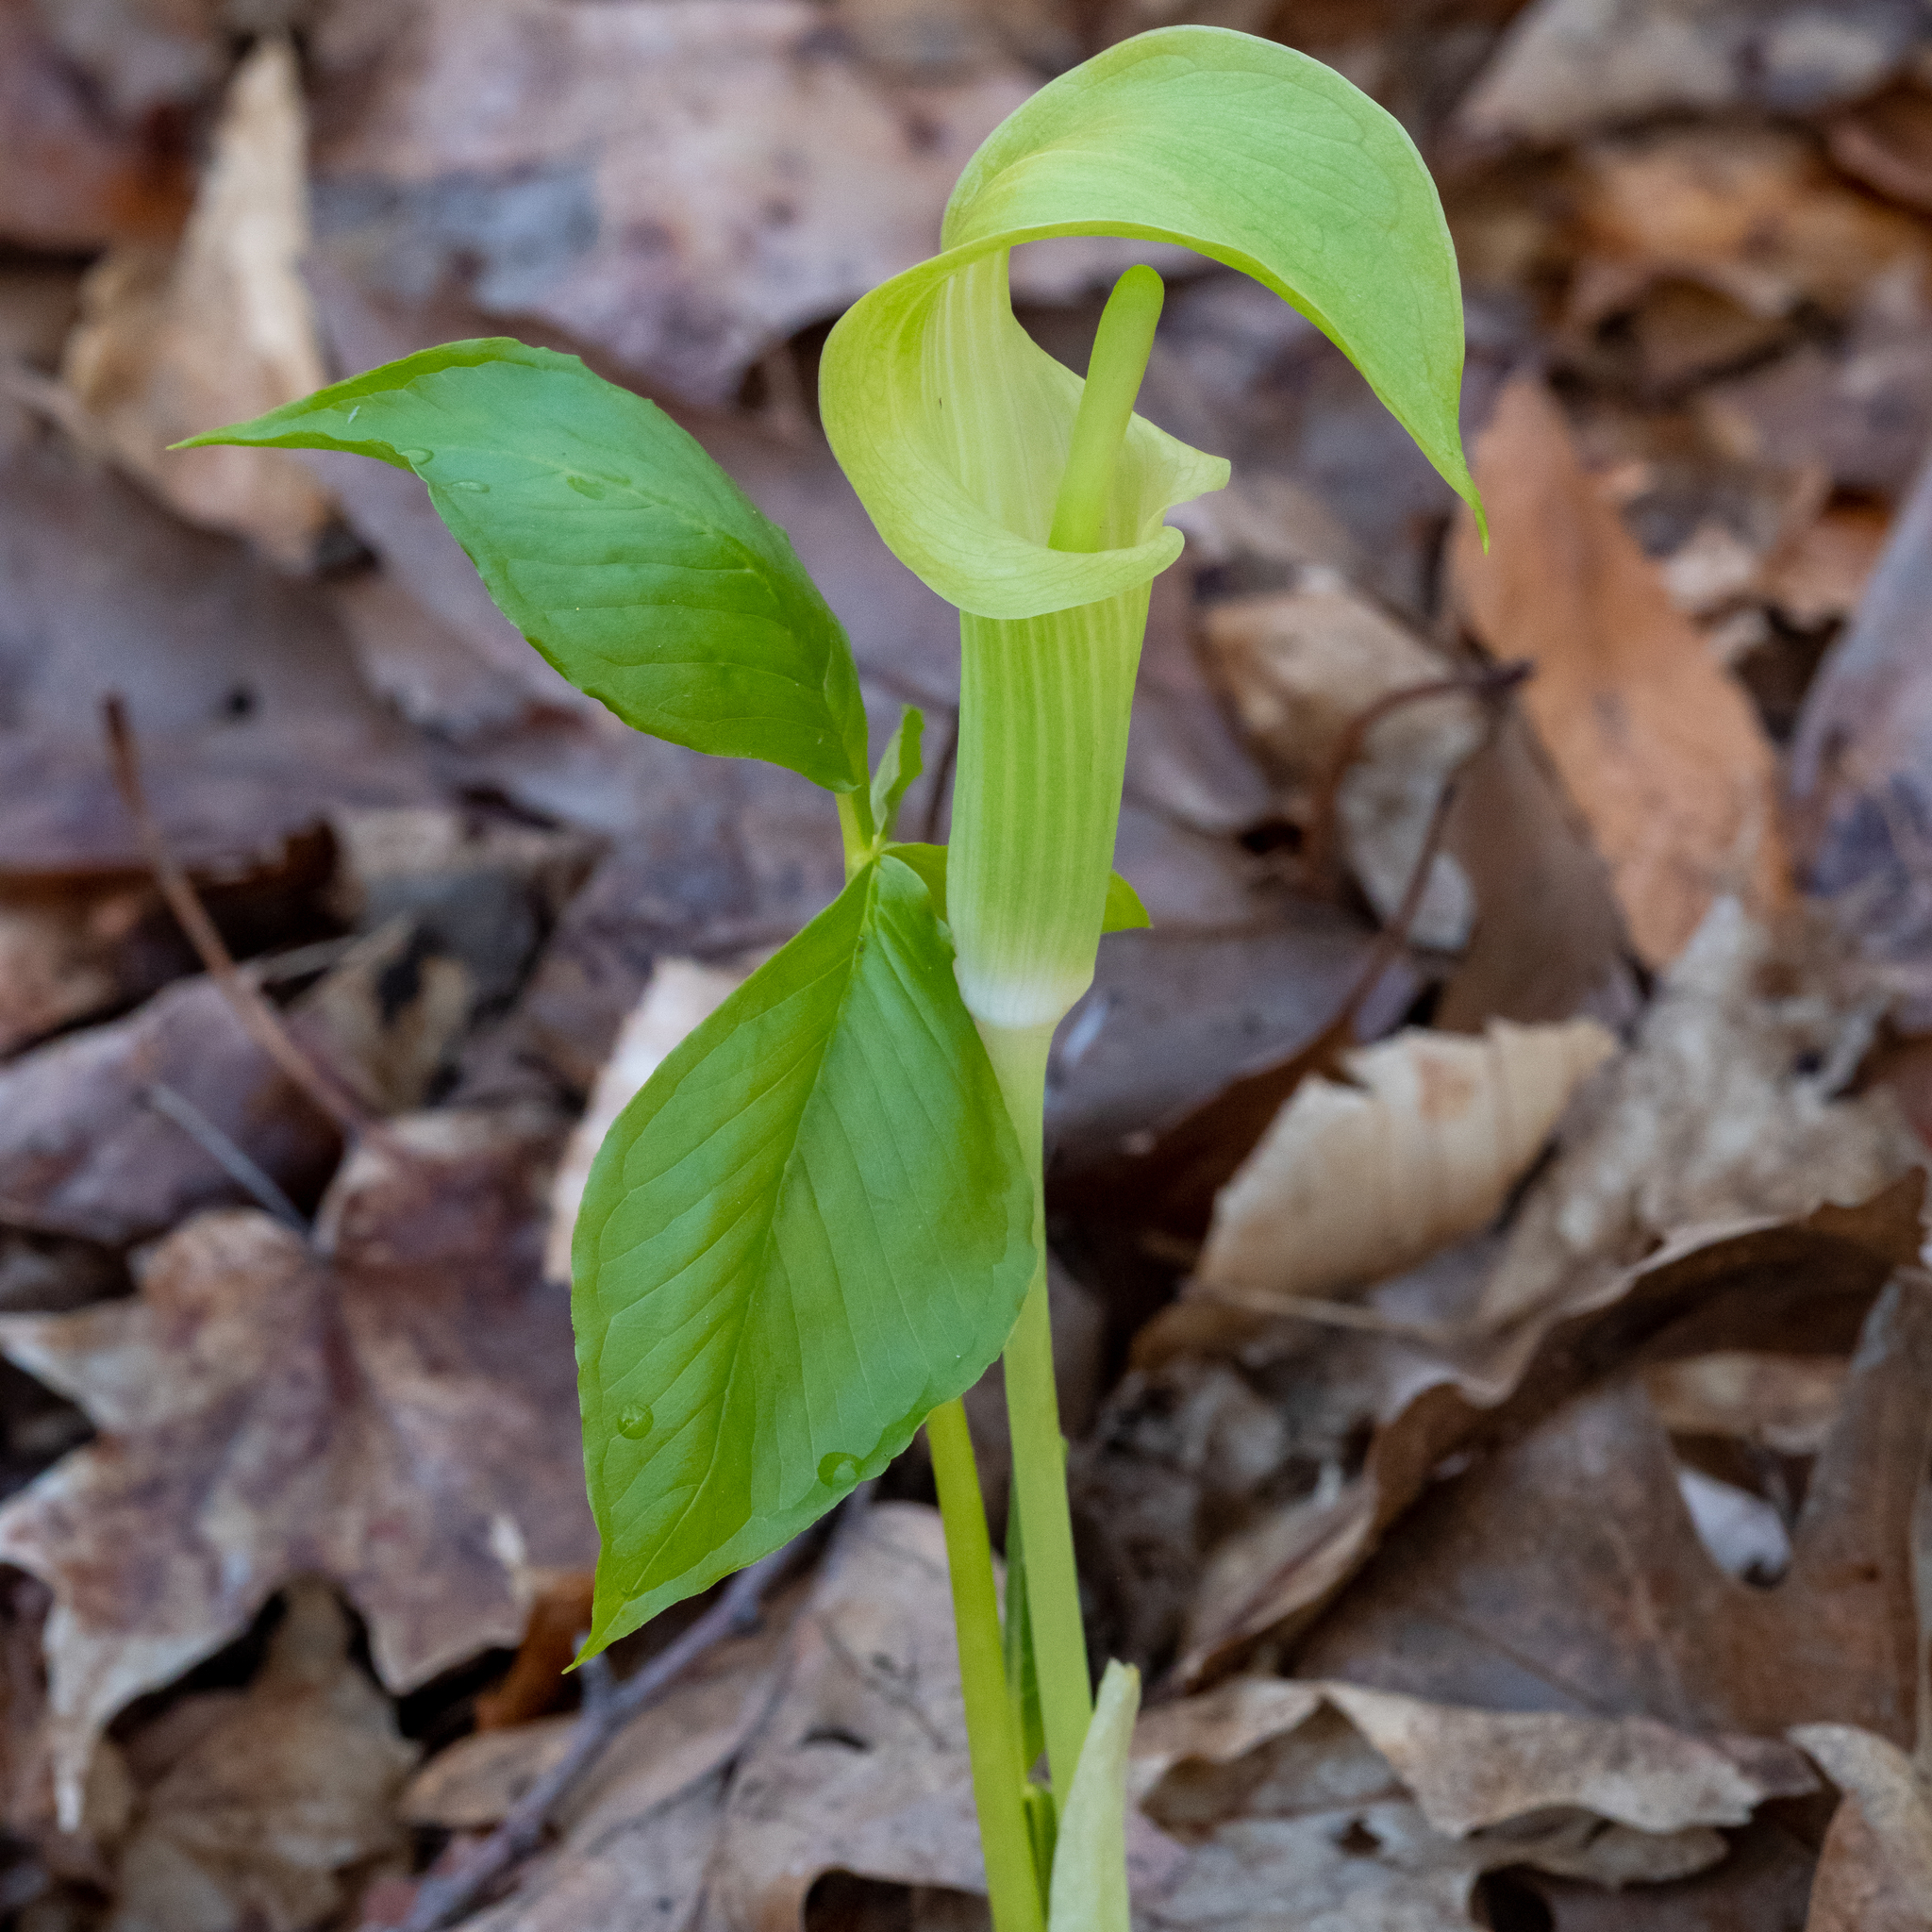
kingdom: Plantae
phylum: Tracheophyta
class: Liliopsida
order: Alismatales
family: Araceae
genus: Arisaema
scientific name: Arisaema triphyllum
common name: Jack-in-the-pulpit
